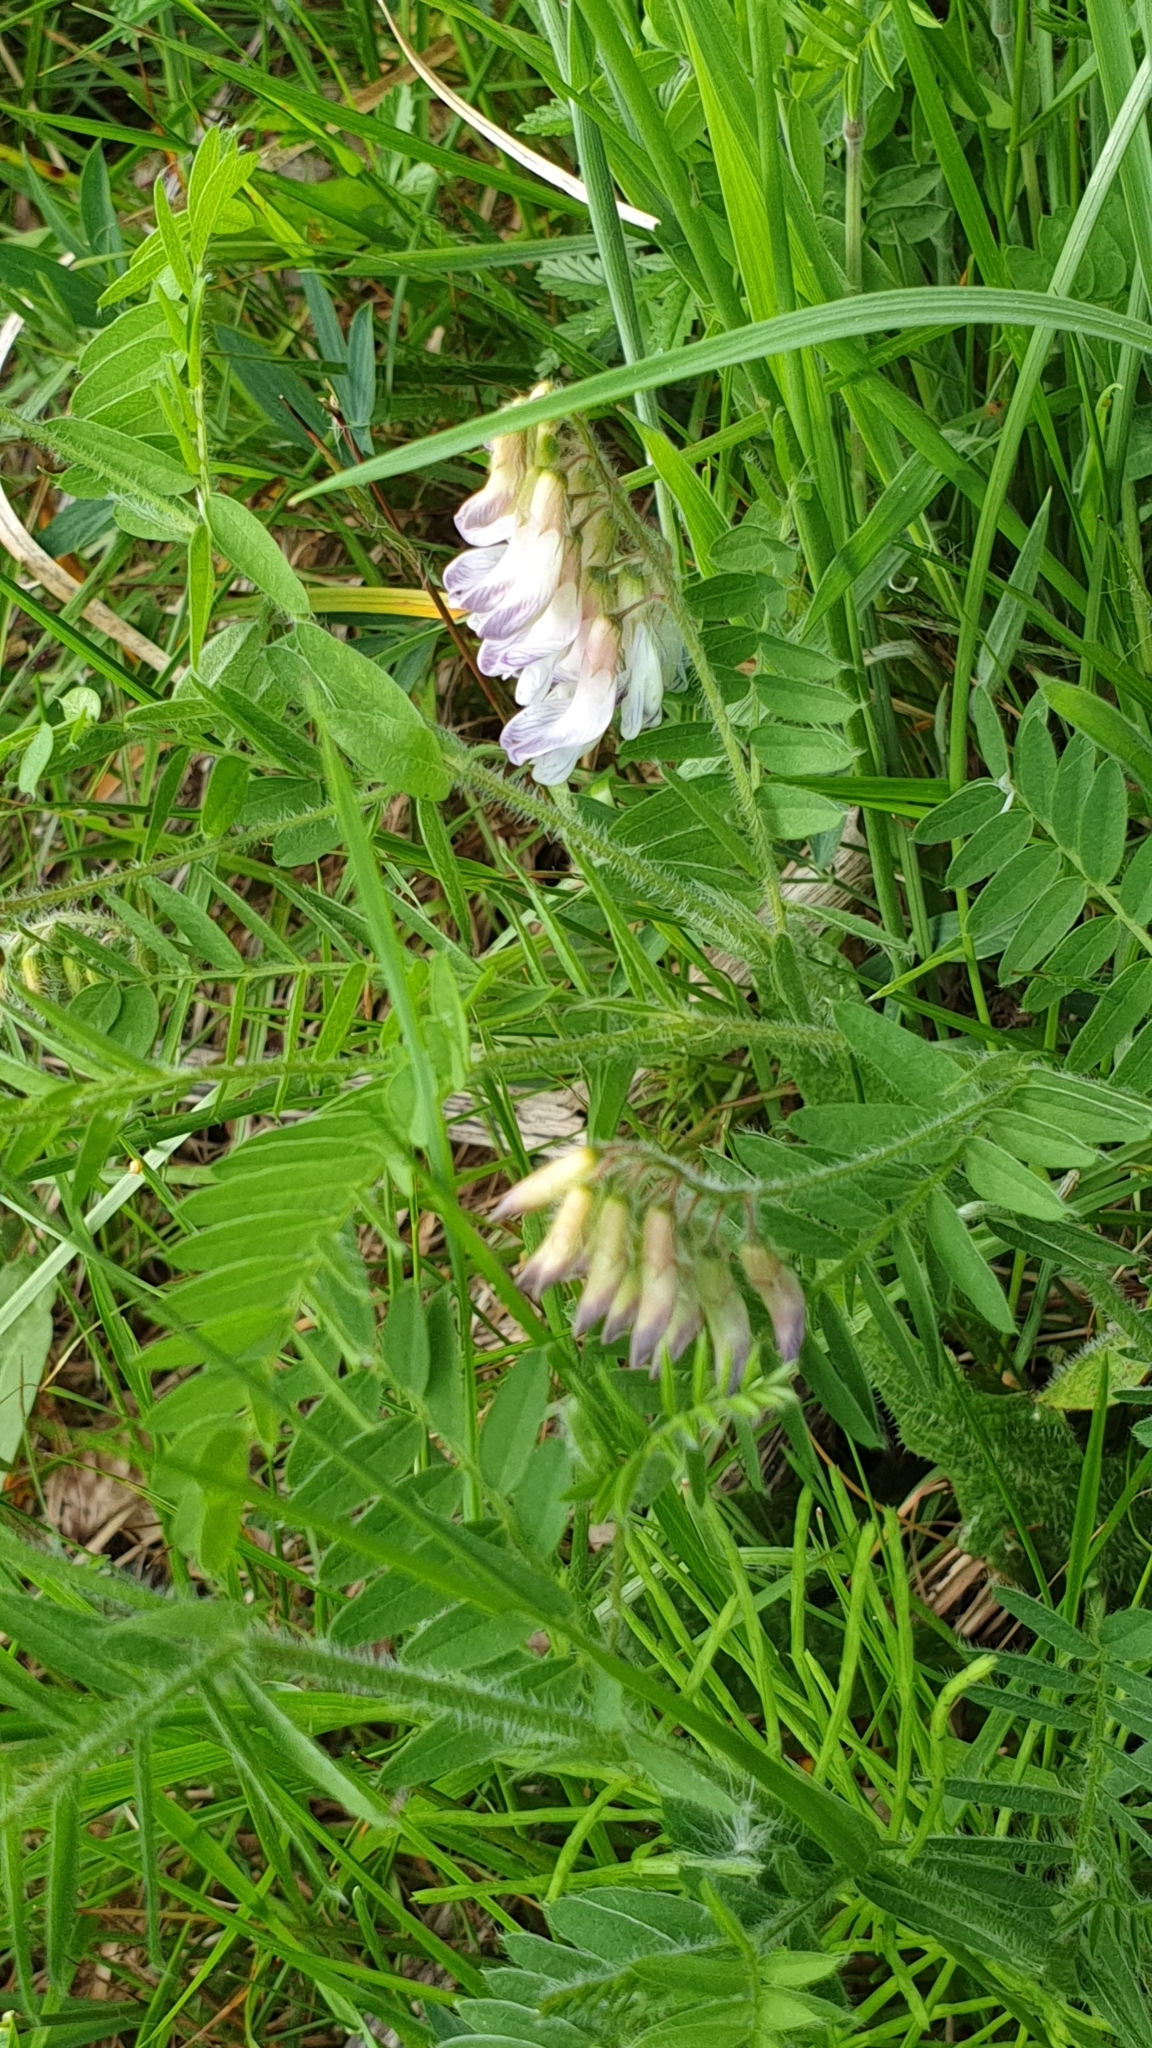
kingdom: Plantae
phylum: Tracheophyta
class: Magnoliopsida
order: Fabales
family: Fabaceae
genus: Vicia
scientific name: Vicia orobus
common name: Wood bitter-vetch
